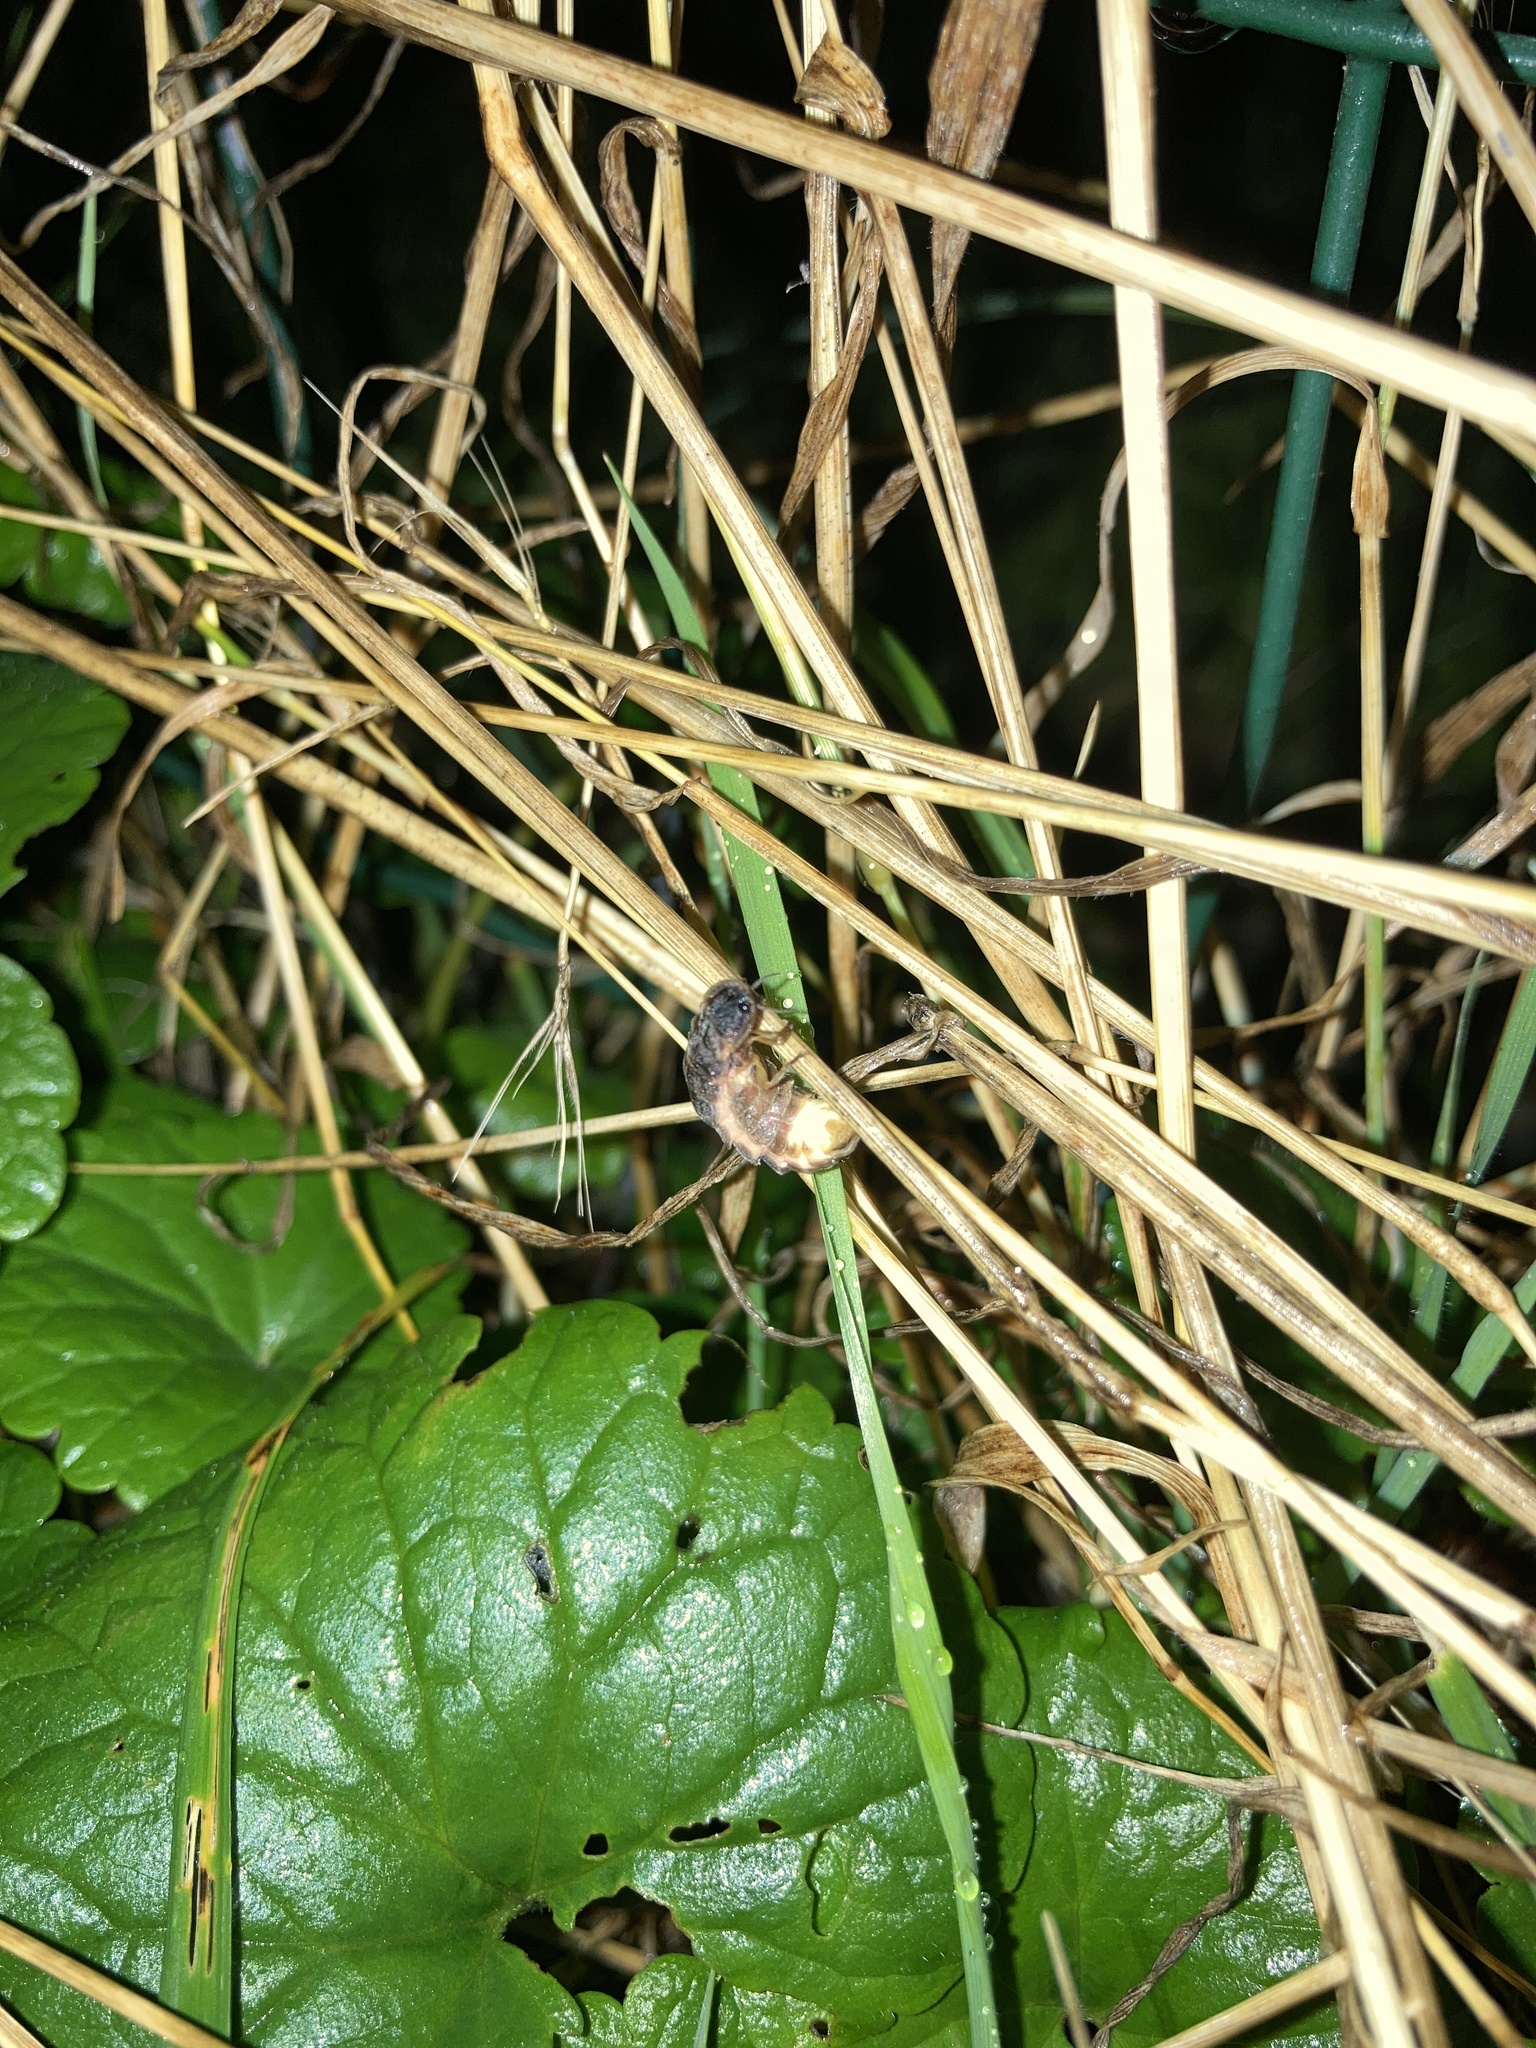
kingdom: Animalia
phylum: Arthropoda
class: Insecta
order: Coleoptera
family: Lampyridae
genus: Lampyris
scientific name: Lampyris noctiluca
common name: Glow-worm
